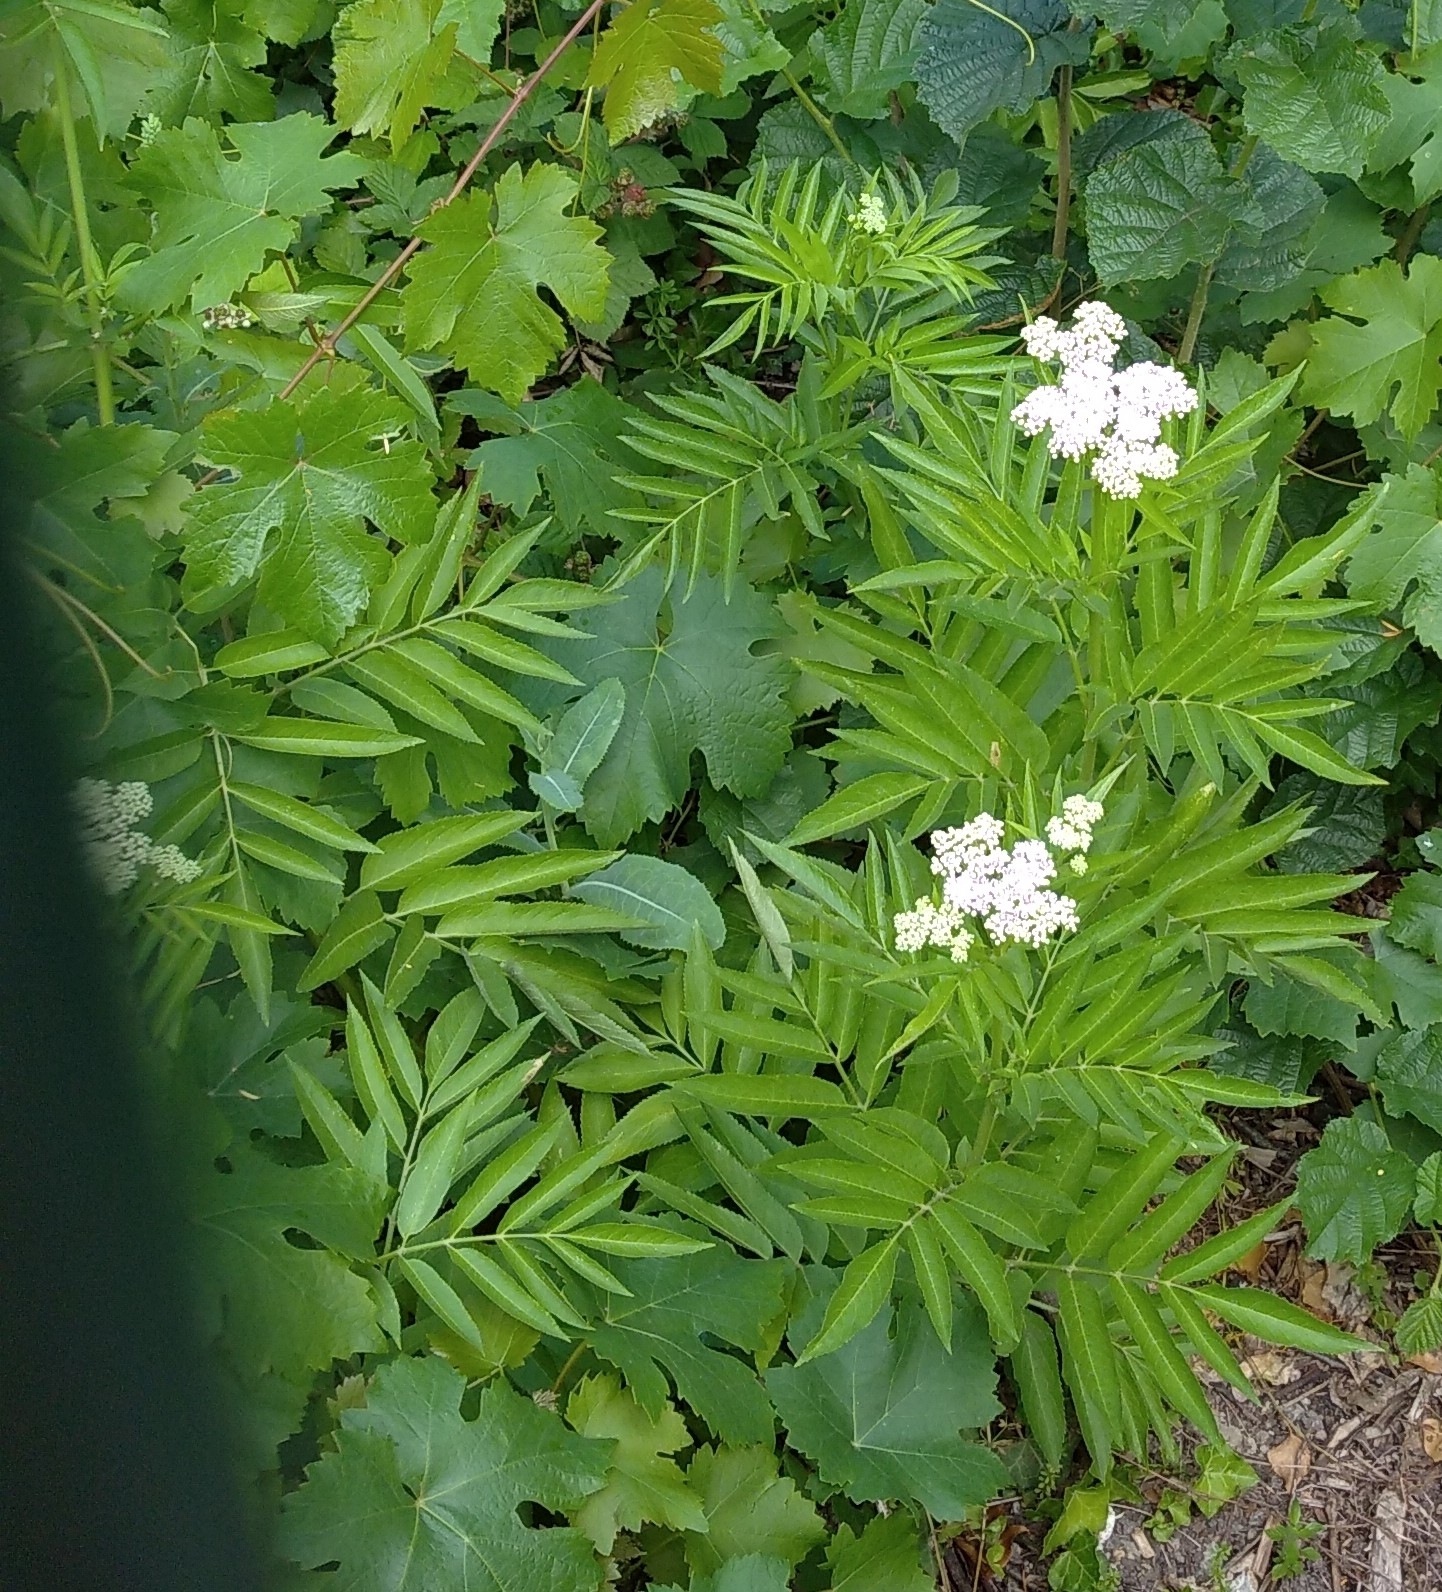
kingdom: Plantae
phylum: Tracheophyta
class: Magnoliopsida
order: Dipsacales
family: Viburnaceae
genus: Sambucus
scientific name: Sambucus ebulus
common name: Dwarf elder
